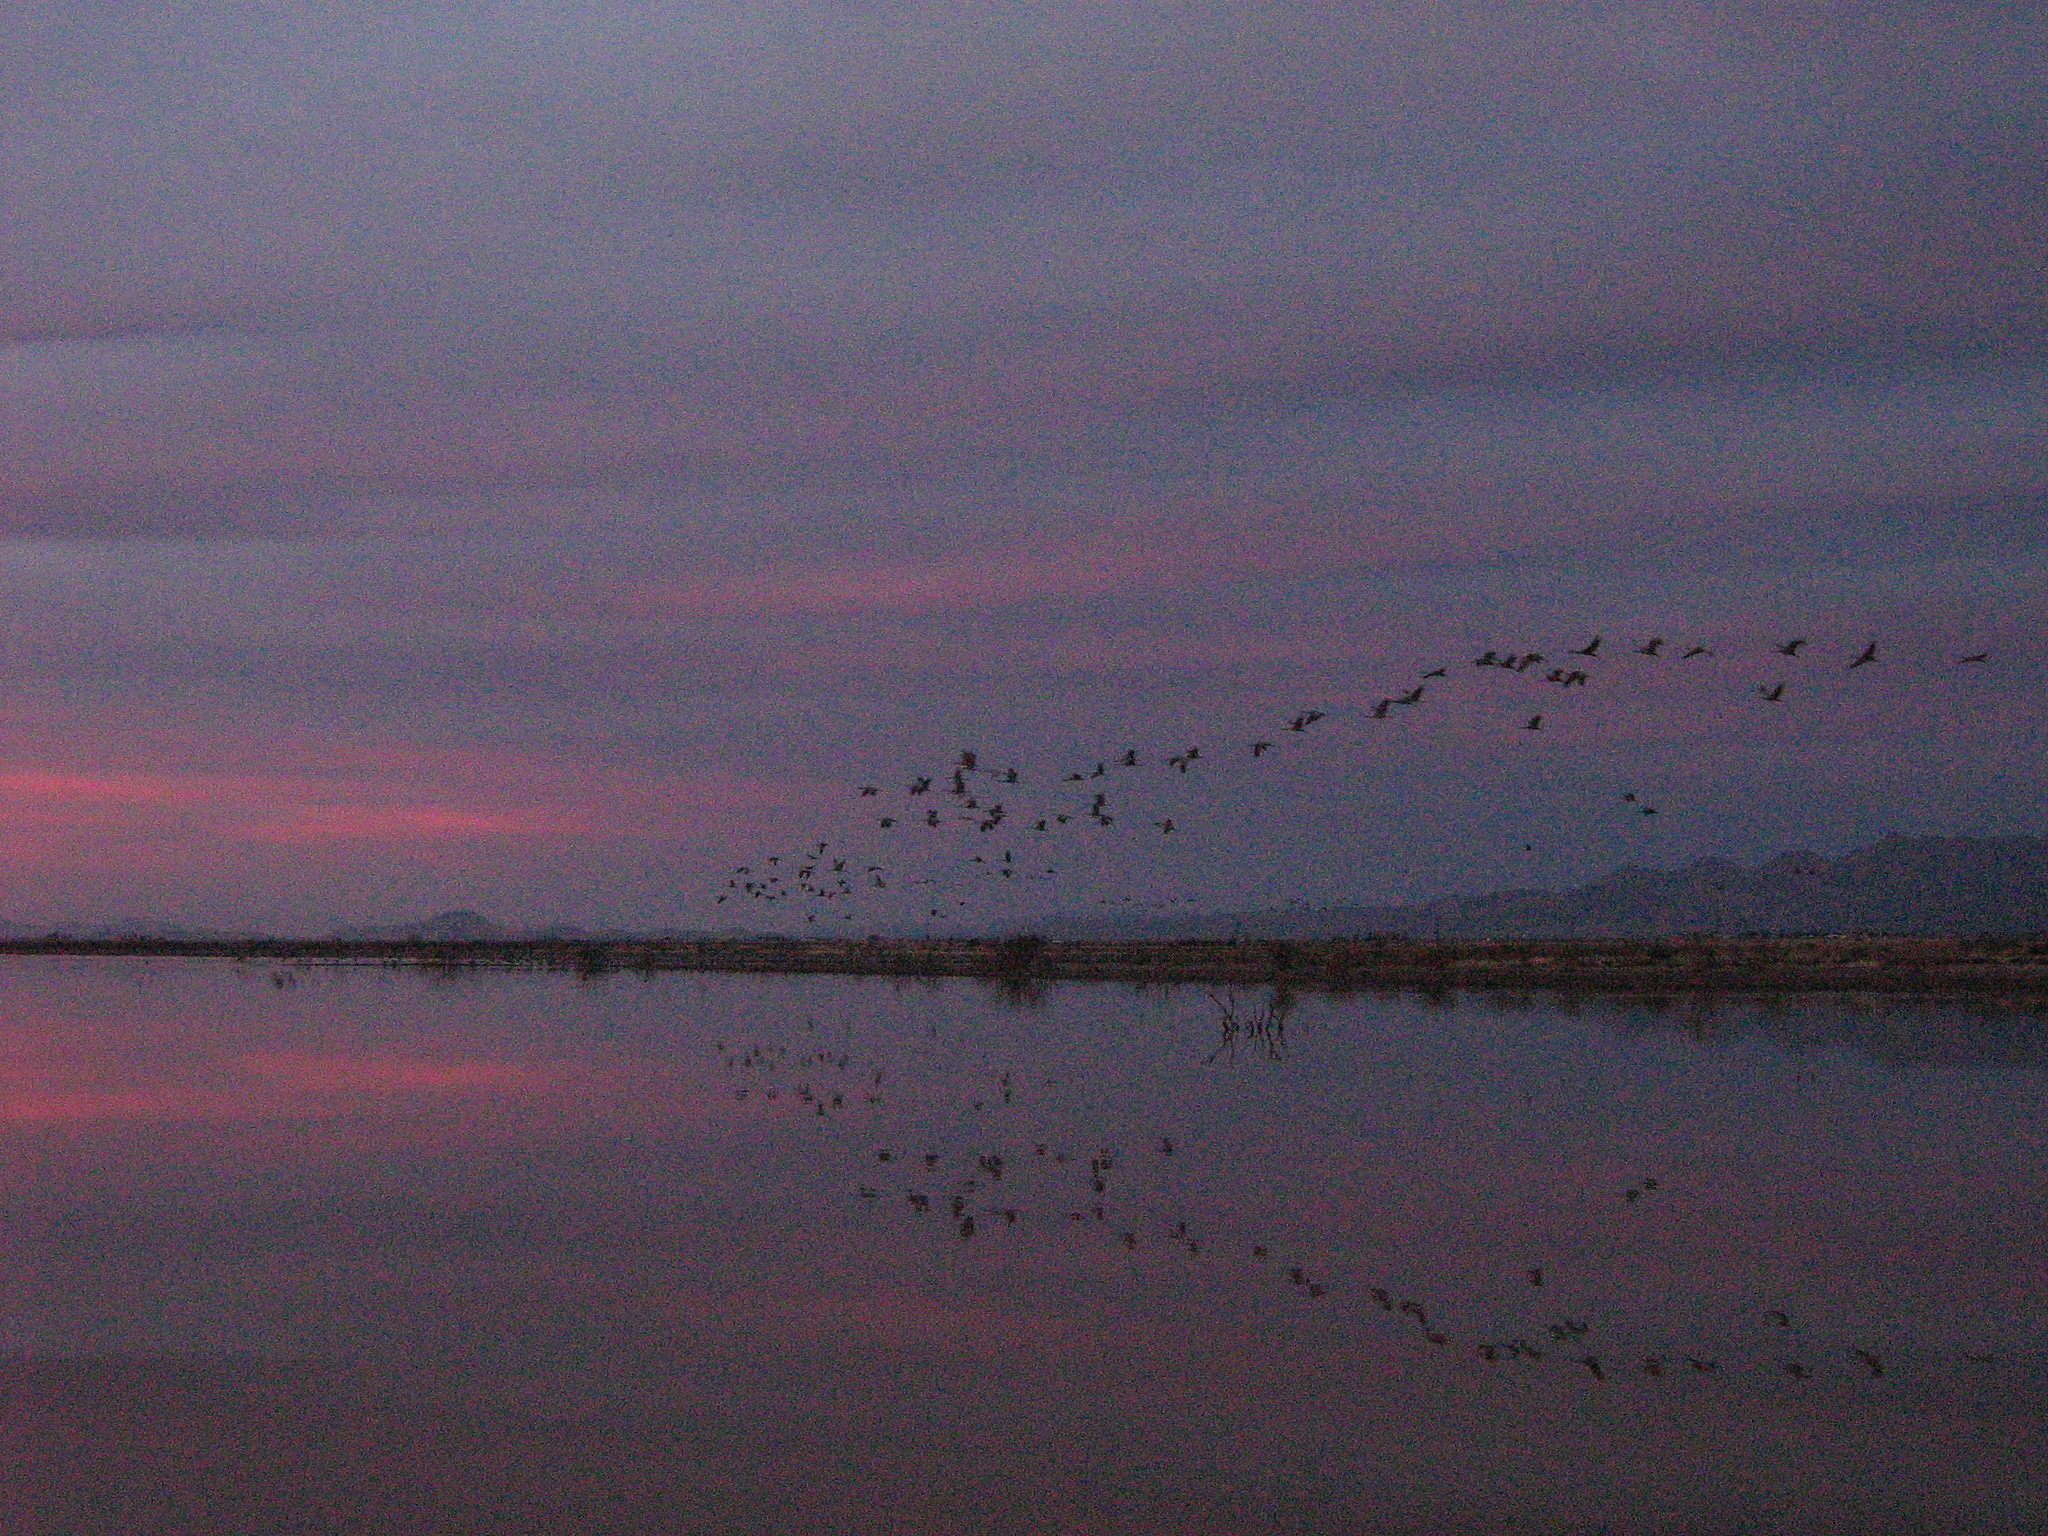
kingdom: Animalia
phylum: Chordata
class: Aves
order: Gruiformes
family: Gruidae
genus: Grus
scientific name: Grus canadensis
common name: Sandhill crane
